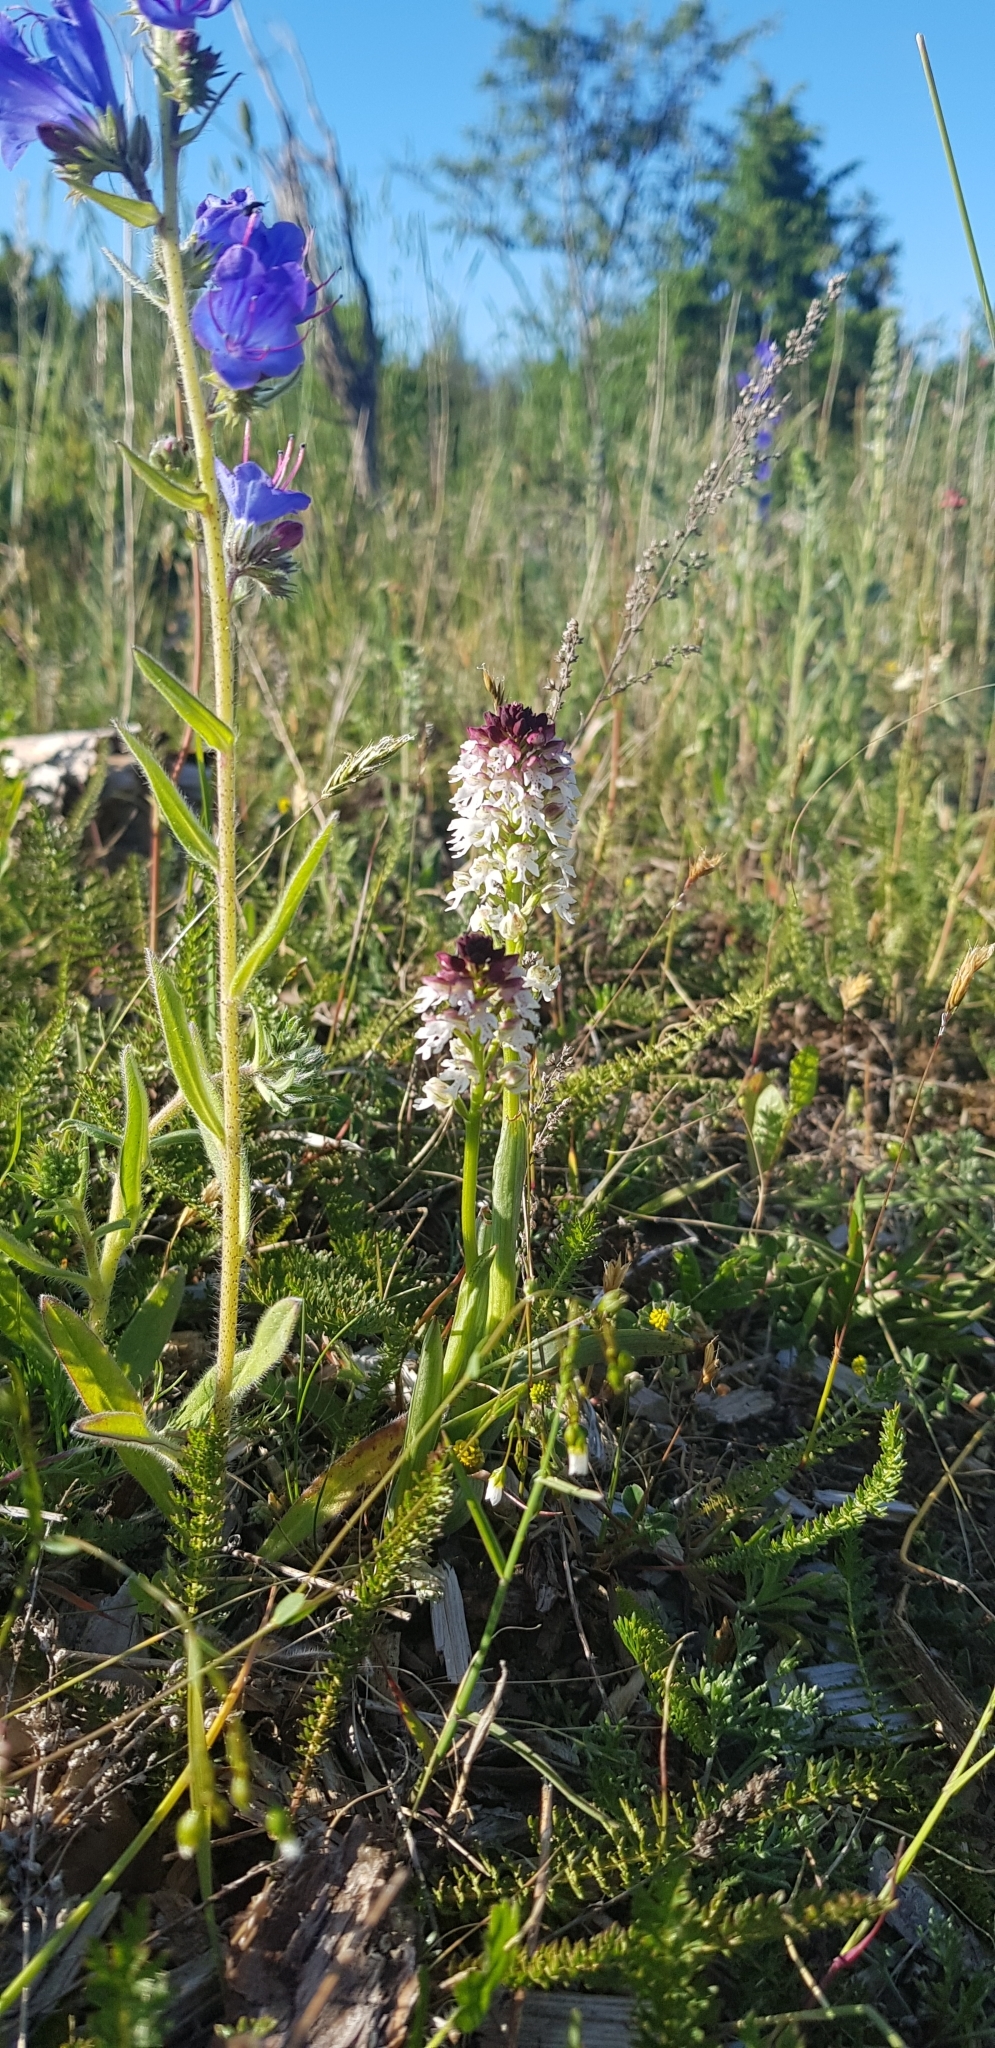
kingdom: Plantae
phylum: Tracheophyta
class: Liliopsida
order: Asparagales
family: Orchidaceae
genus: Neotinea
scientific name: Neotinea ustulata
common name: Burnt orchid
